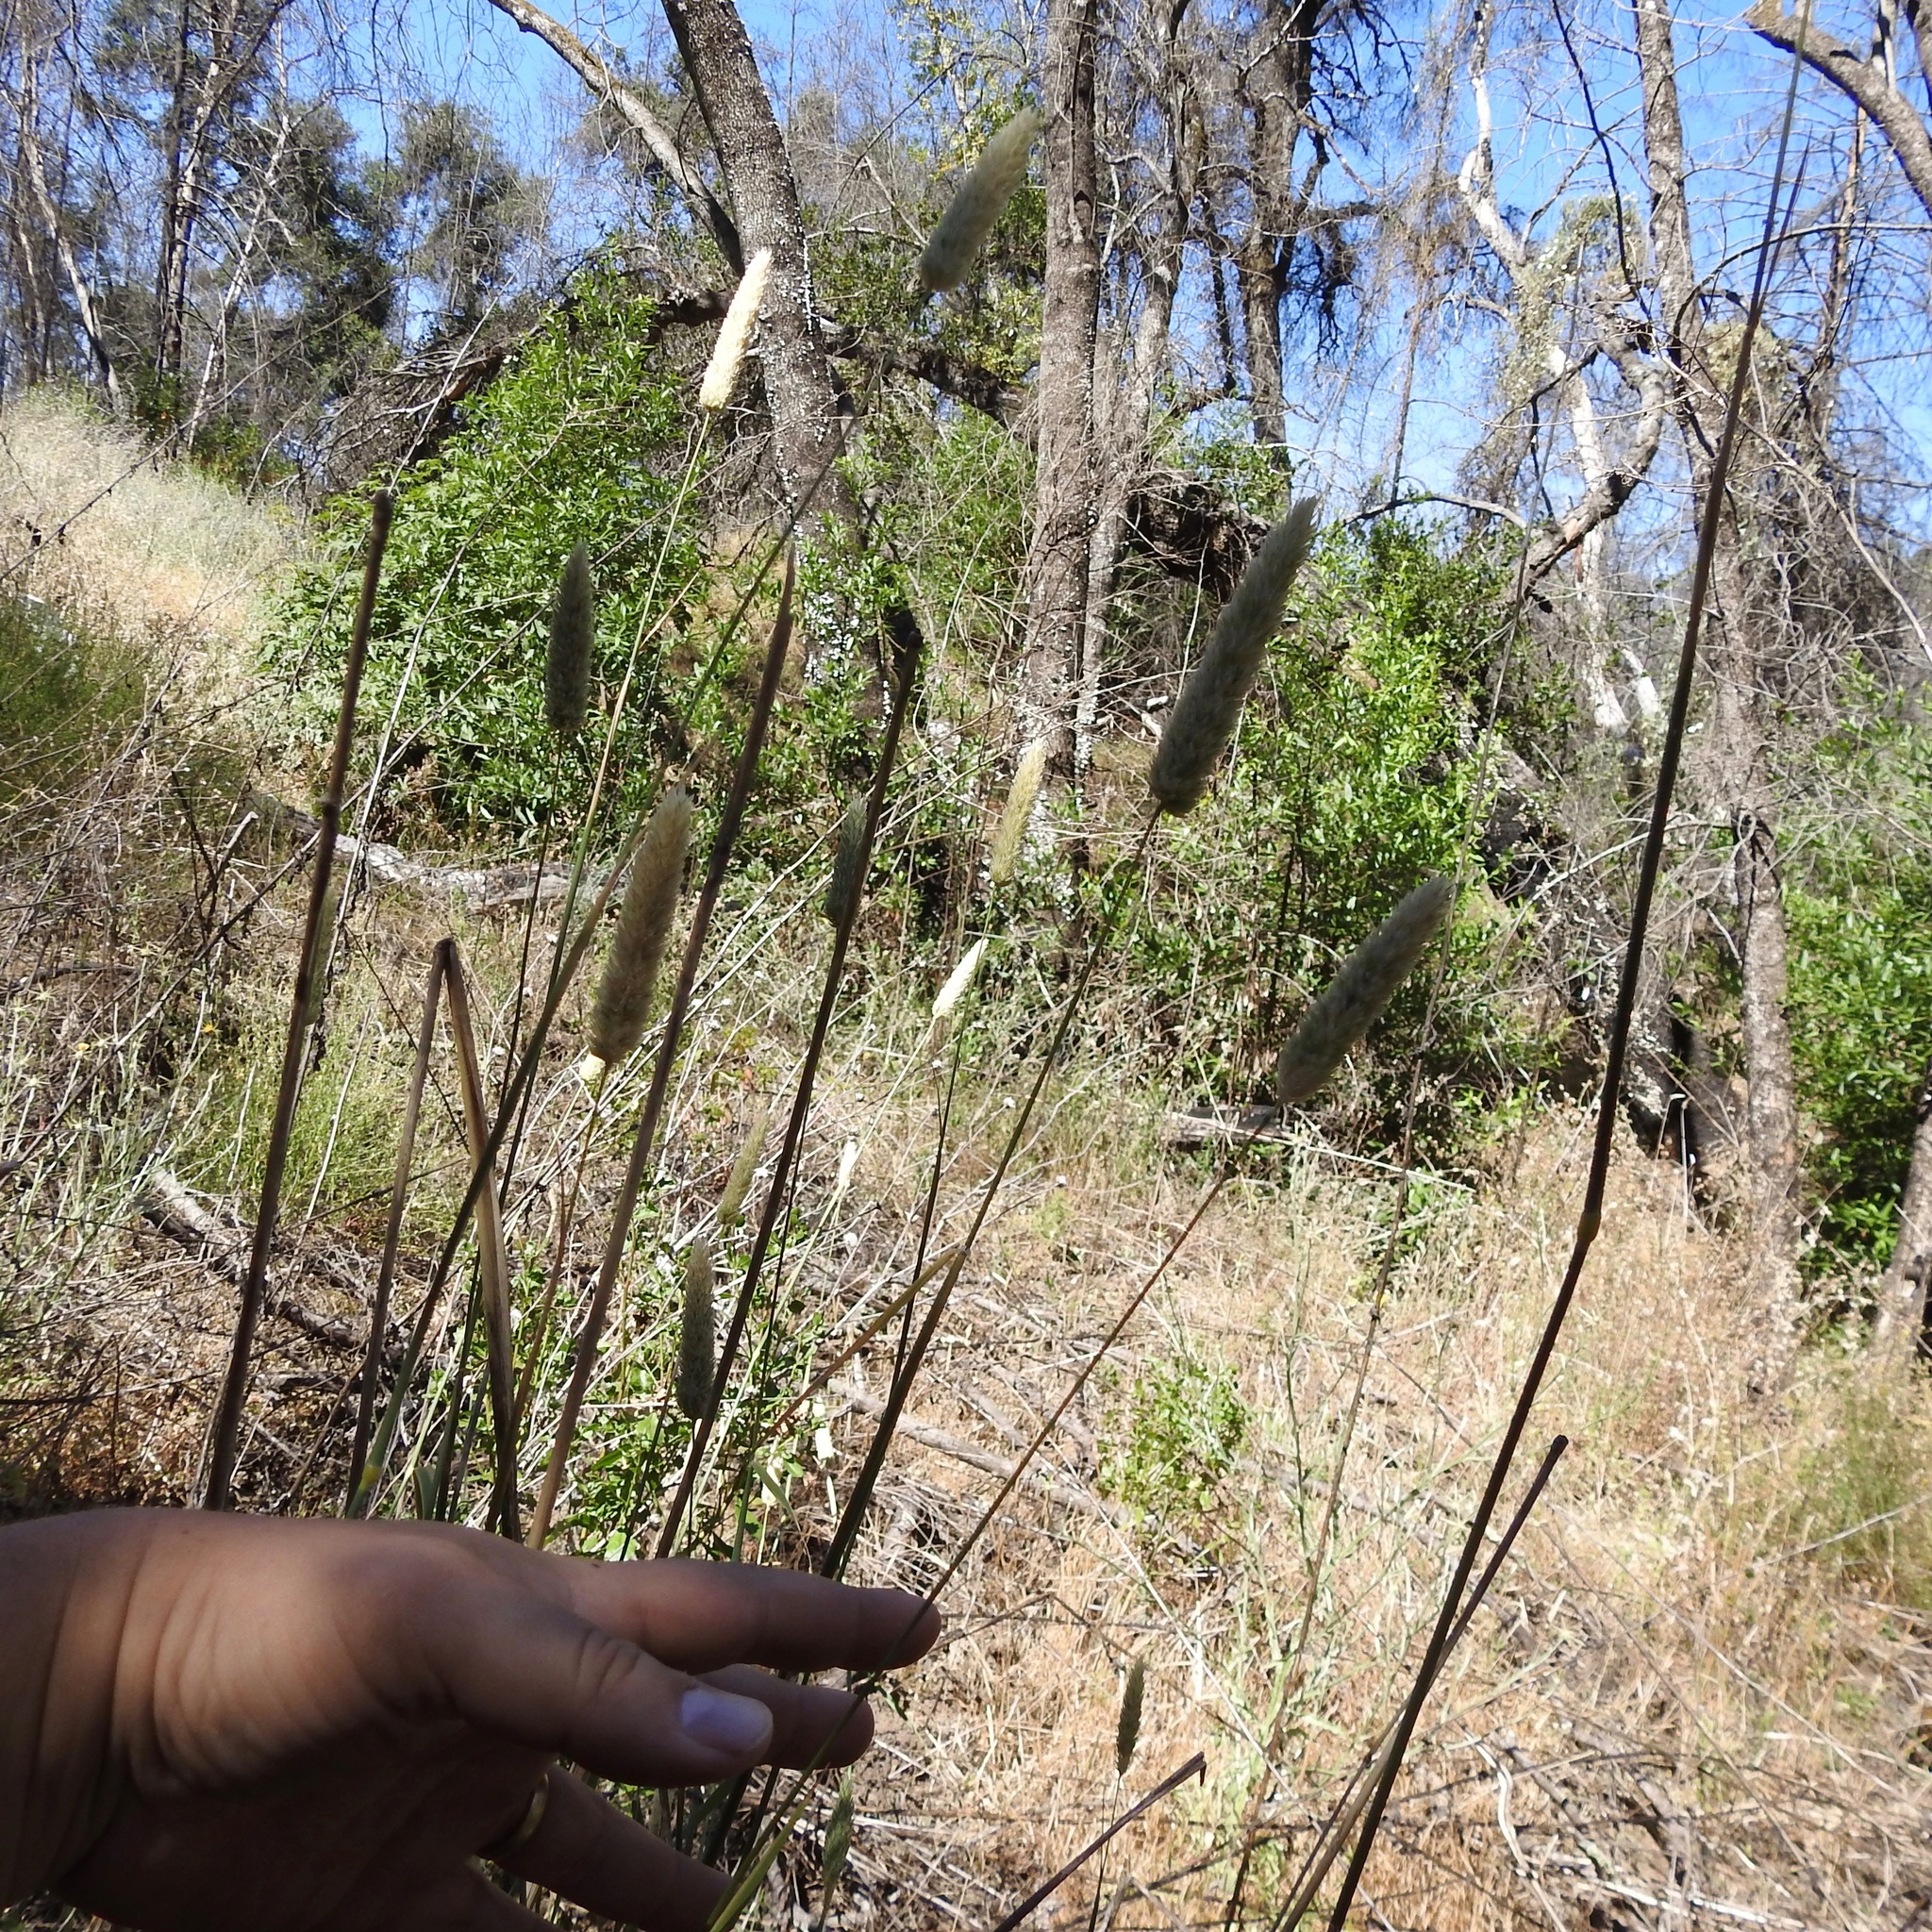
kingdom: Plantae
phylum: Tracheophyta
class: Liliopsida
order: Poales
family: Poaceae
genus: Phalaris
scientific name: Phalaris aquatica
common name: Bulbous canary-grass
